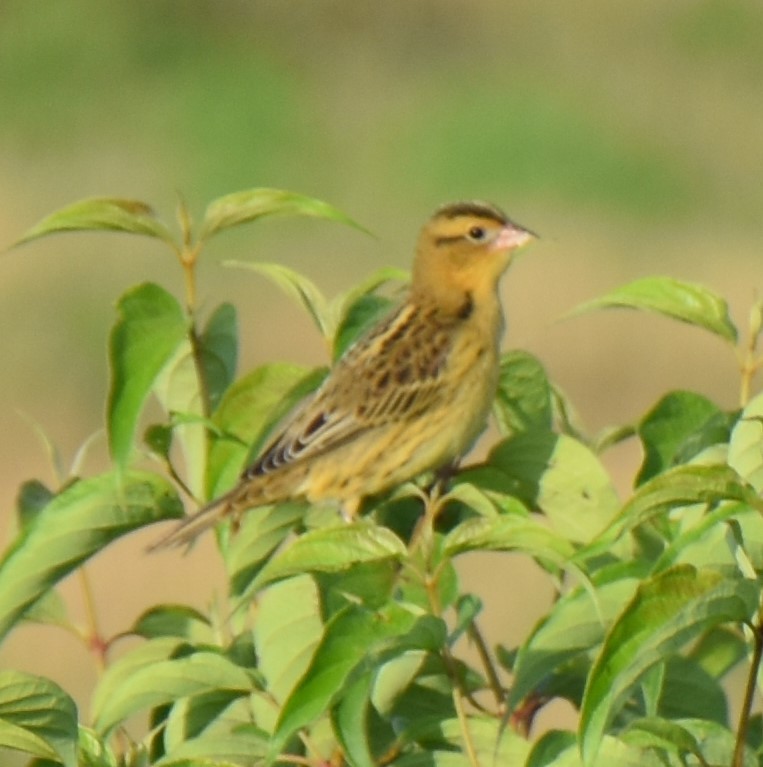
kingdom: Animalia
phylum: Chordata
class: Aves
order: Passeriformes
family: Icteridae
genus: Dolichonyx
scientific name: Dolichonyx oryzivorus
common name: Bobolink
